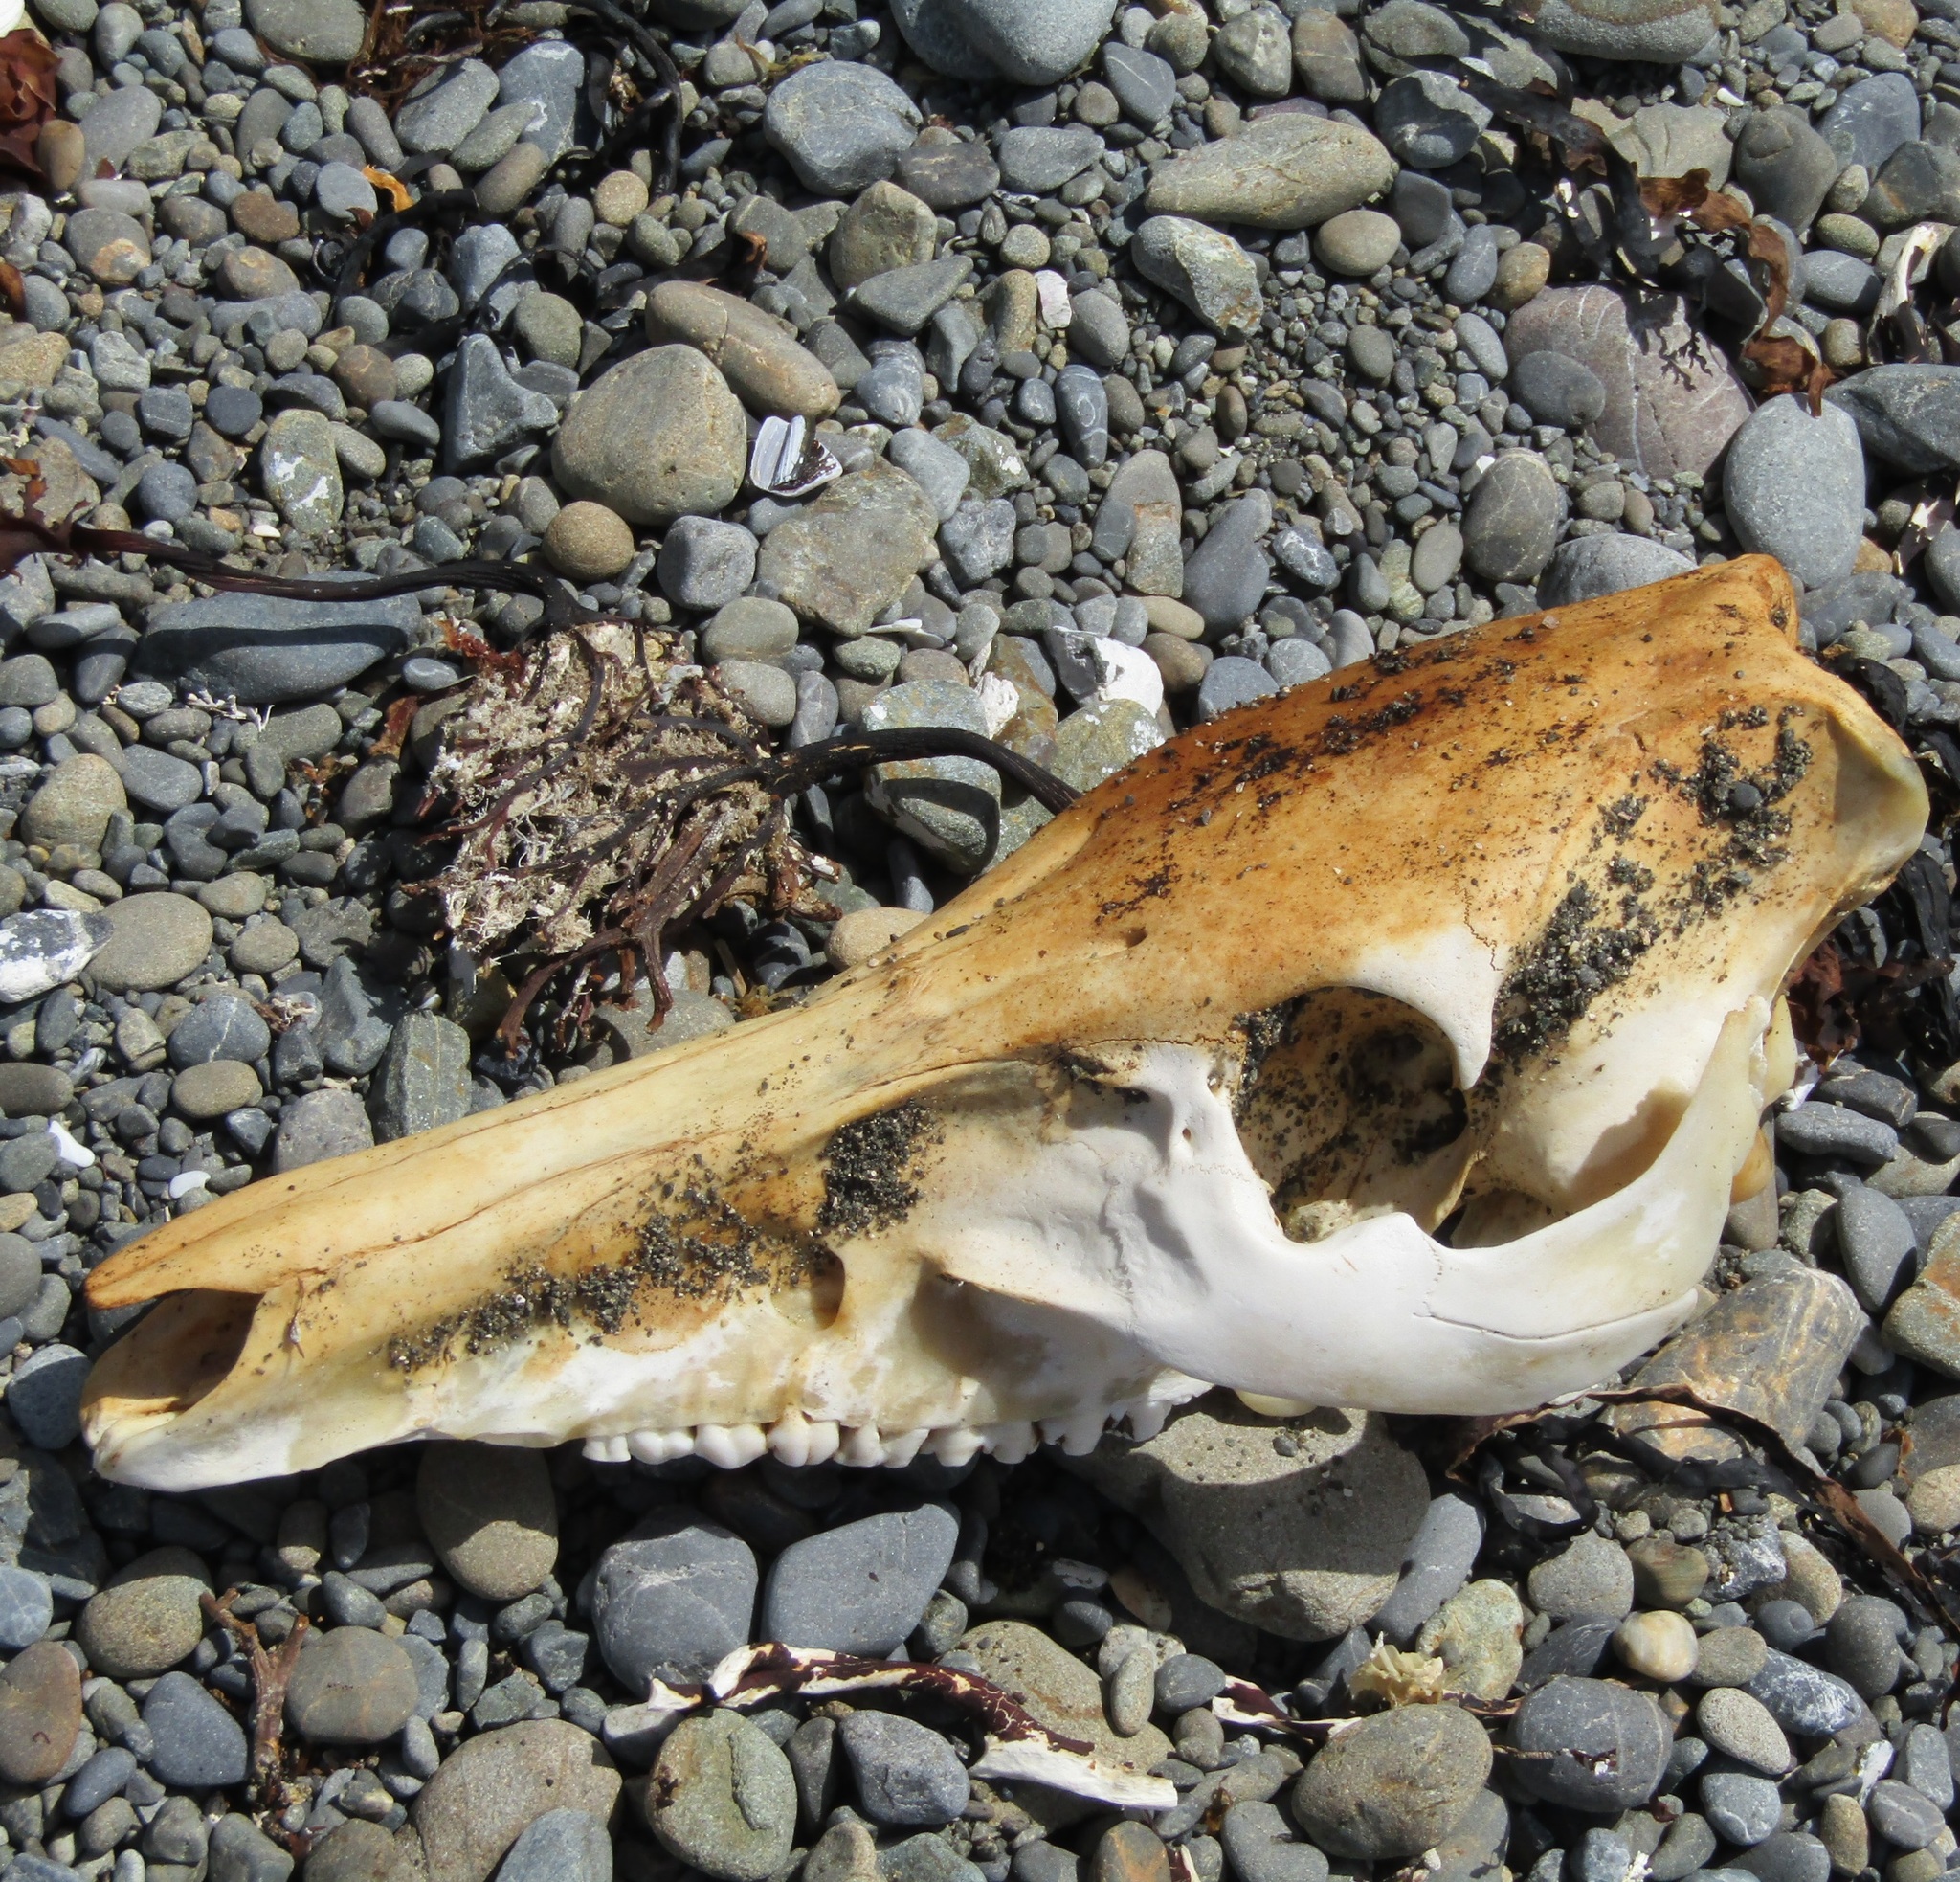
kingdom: Animalia
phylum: Chordata
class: Mammalia
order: Artiodactyla
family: Suidae
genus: Sus
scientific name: Sus scrofa
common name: Wild boar
